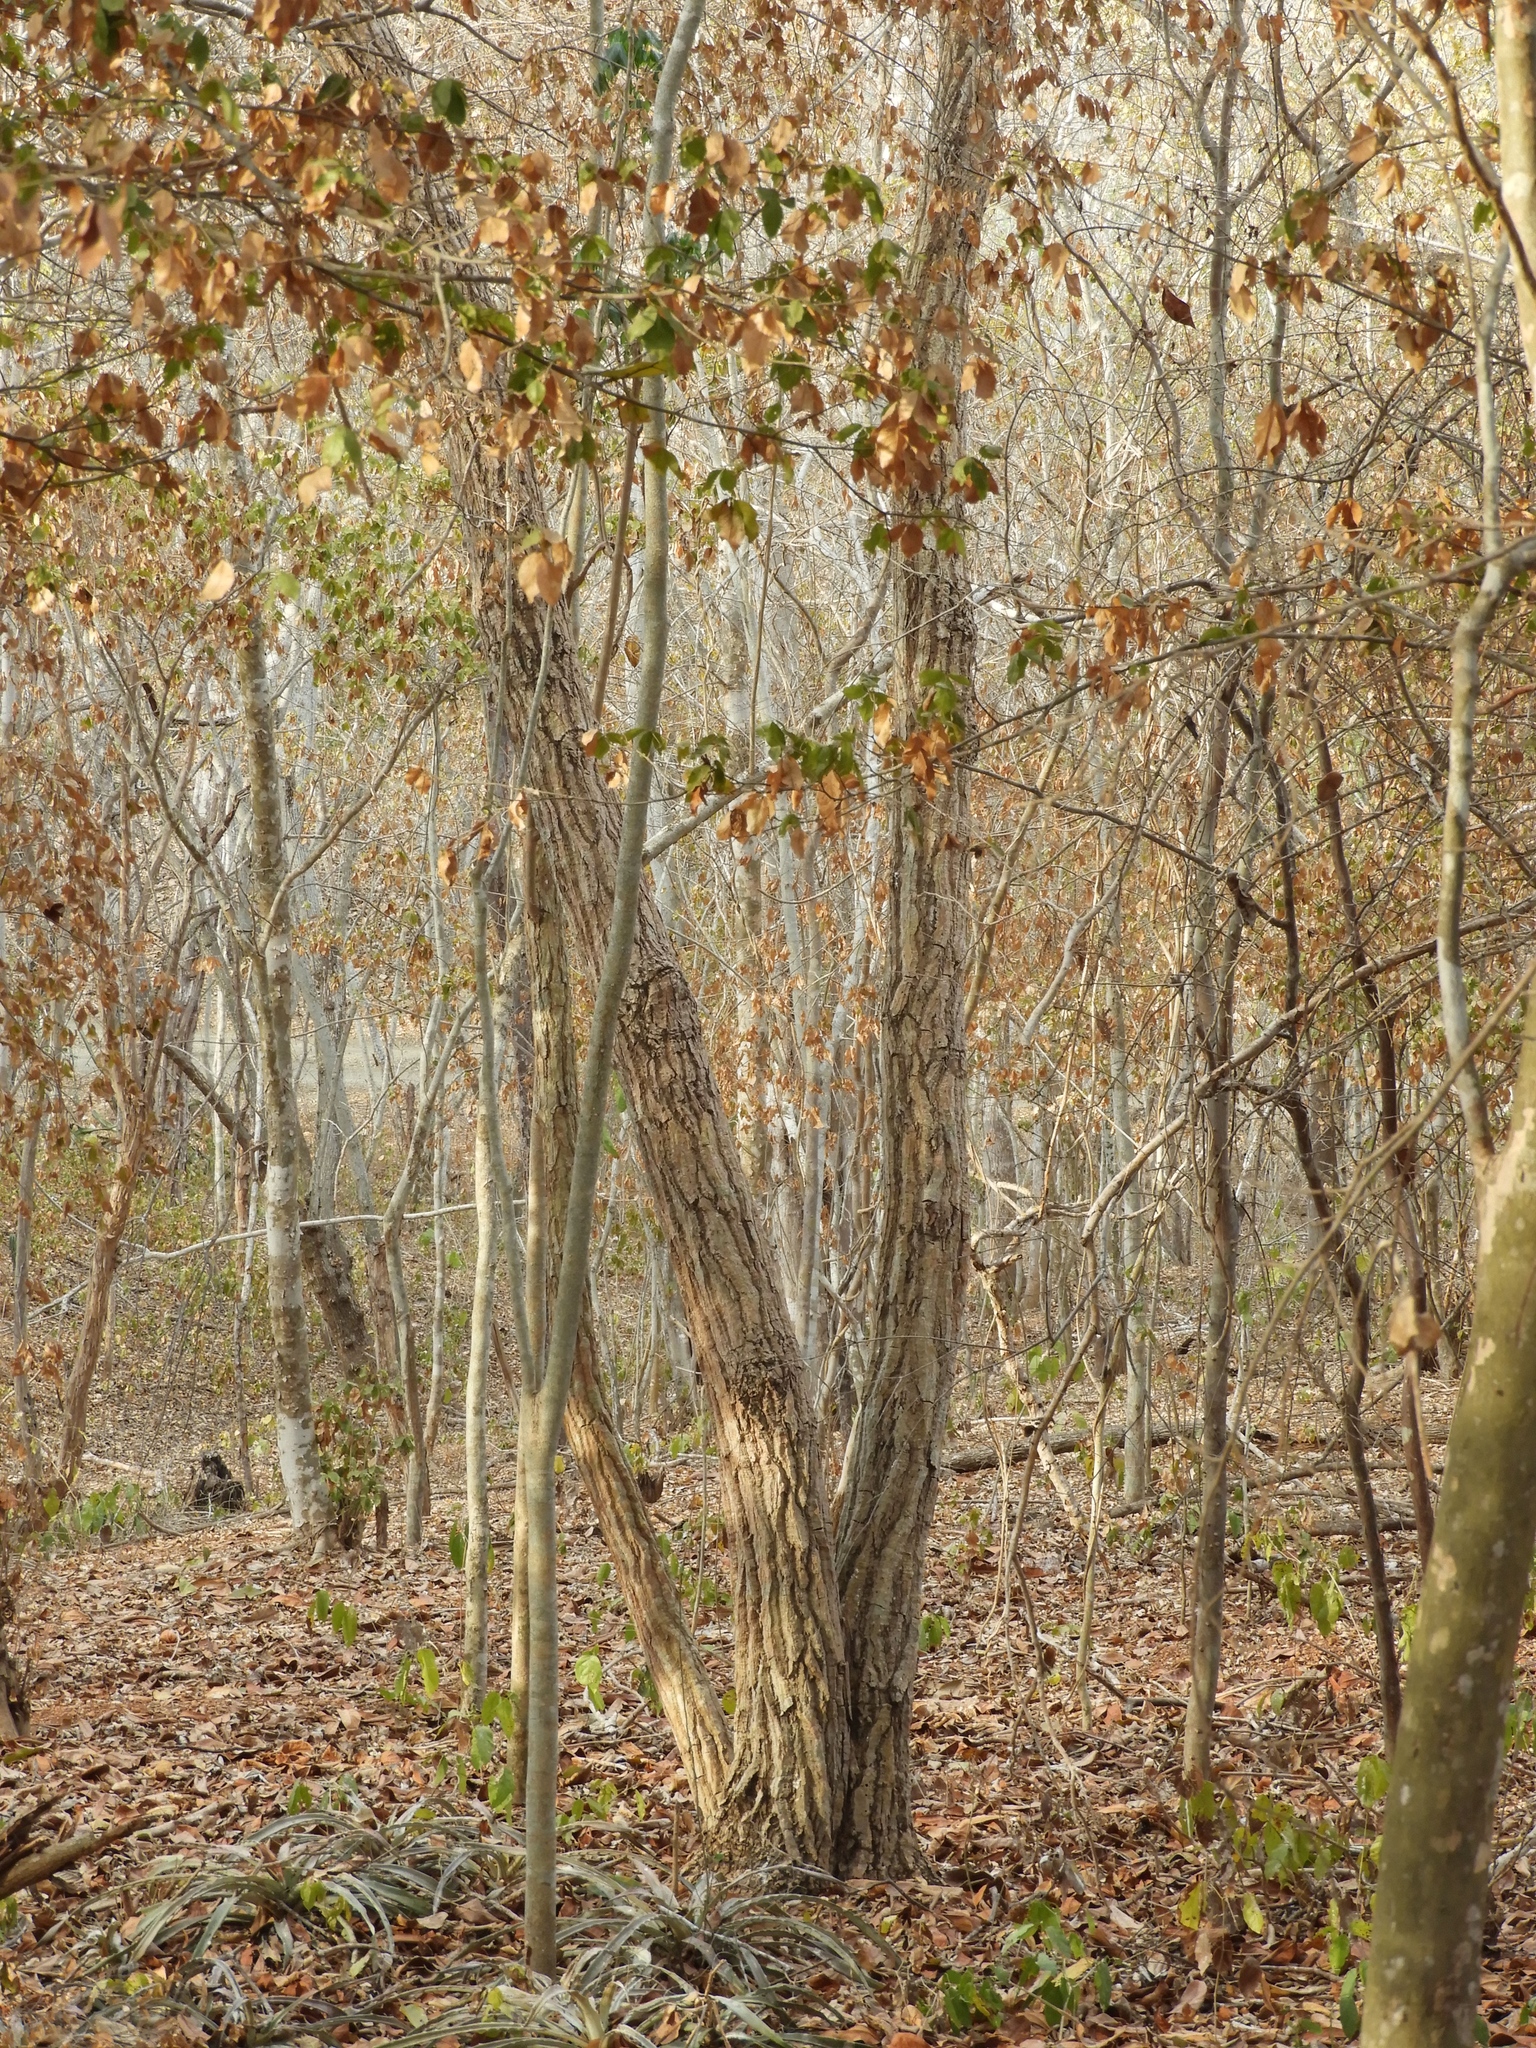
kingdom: Plantae
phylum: Tracheophyta
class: Magnoliopsida
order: Malpighiales
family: Picrodendraceae
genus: Piranhea
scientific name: Piranhea mexicana
